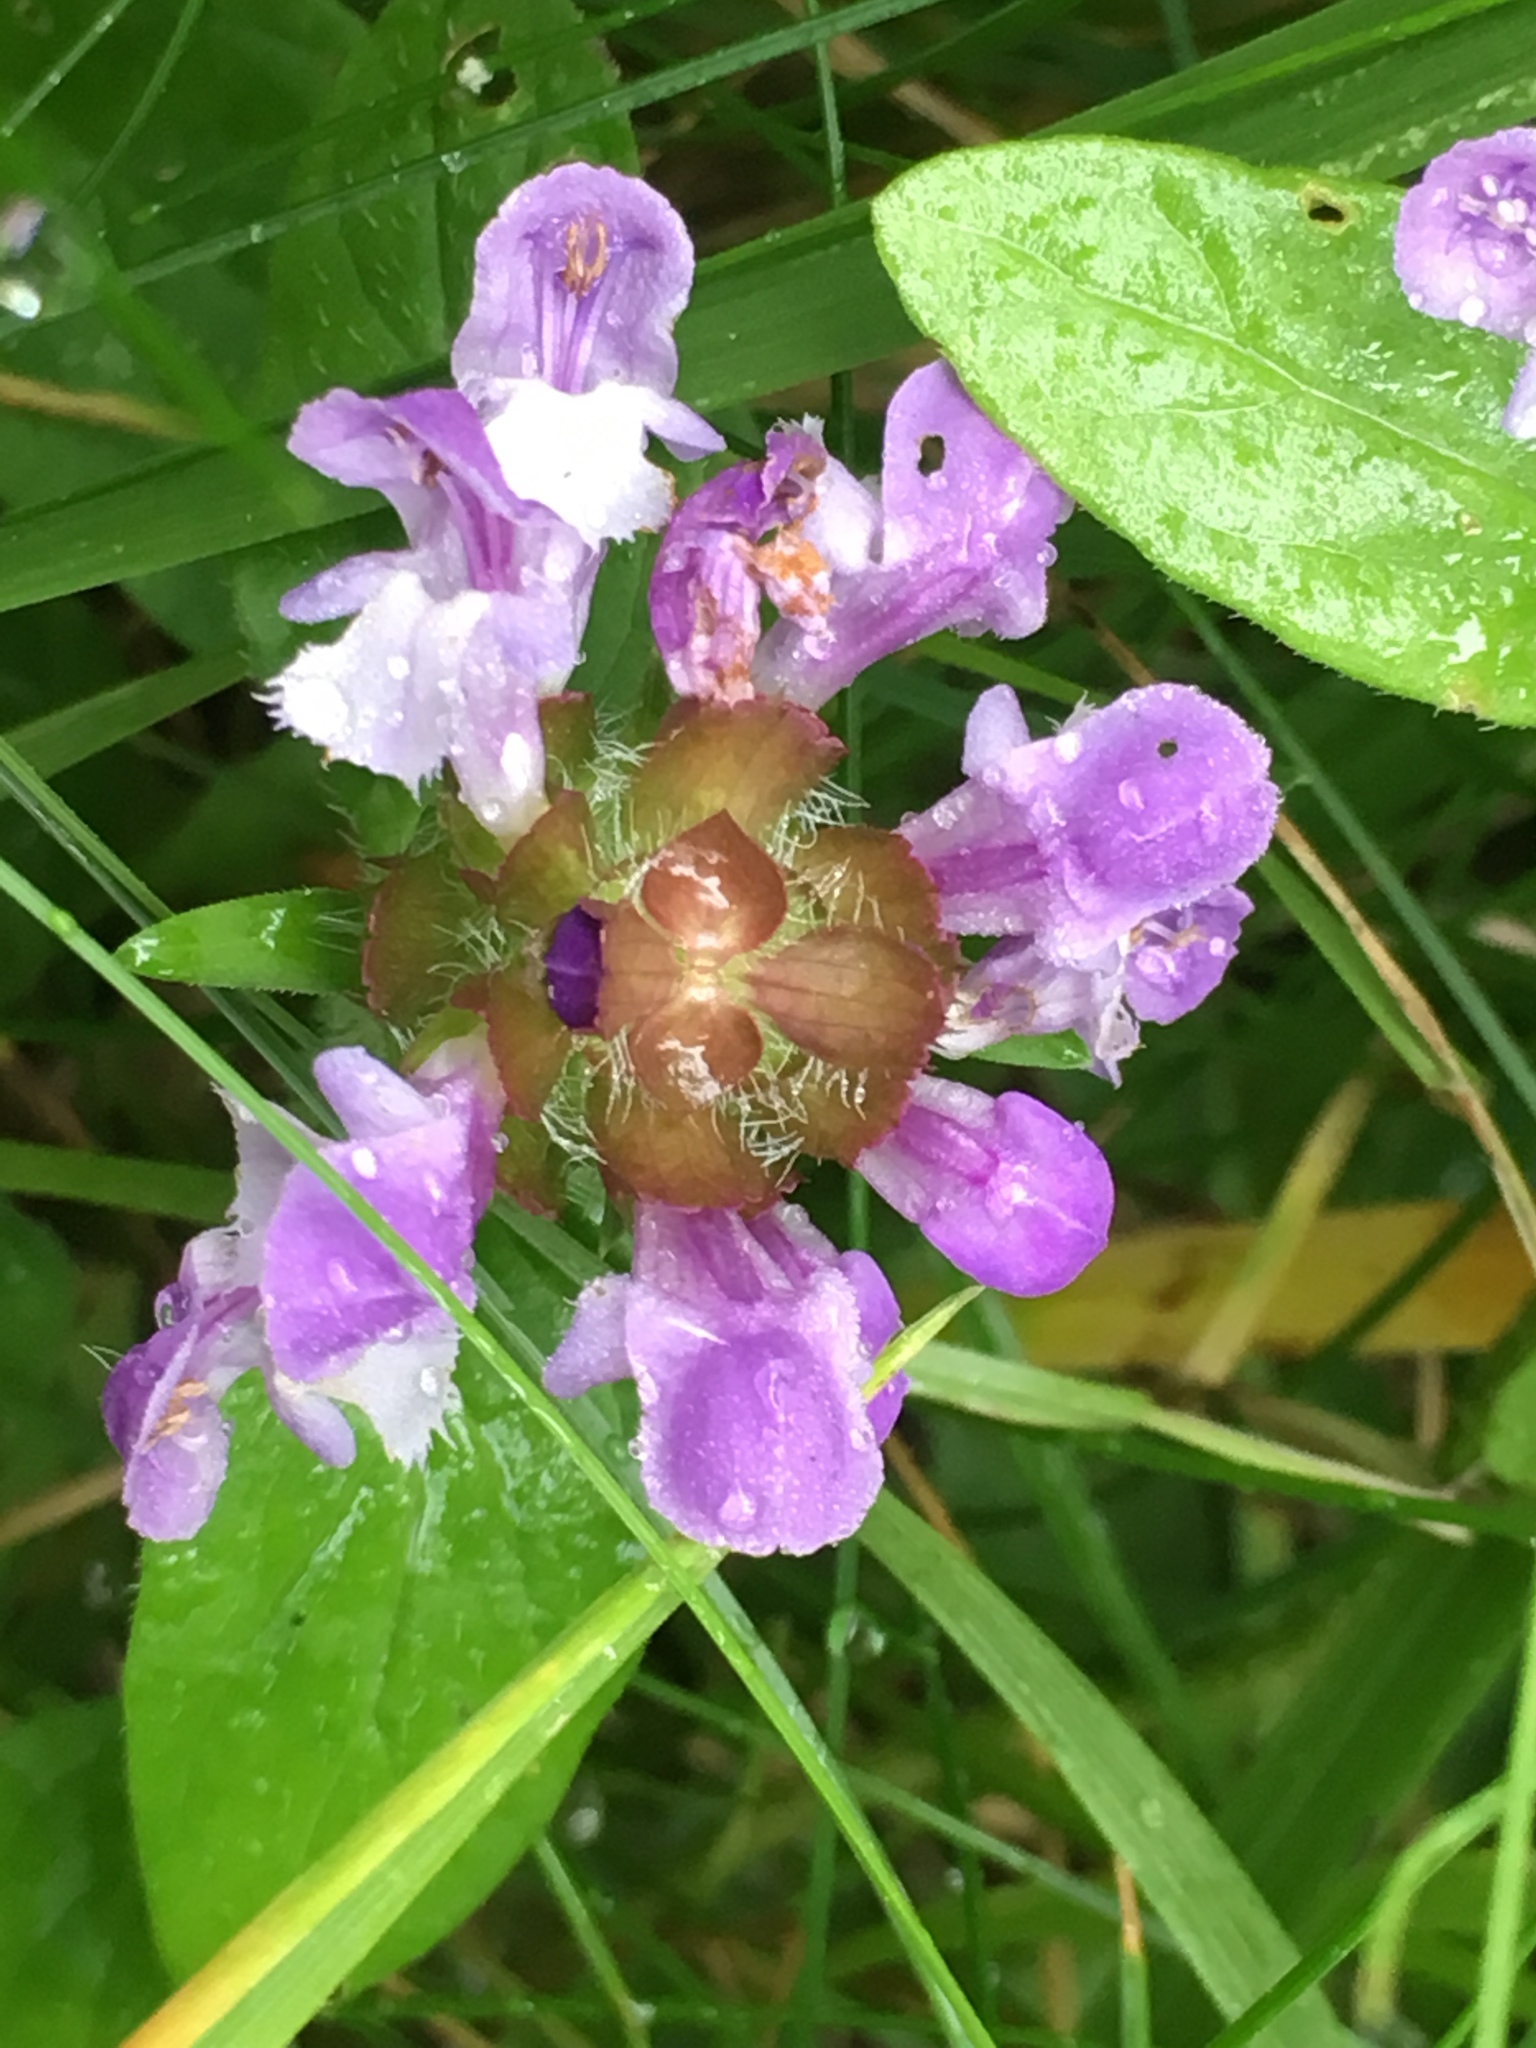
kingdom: Plantae
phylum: Tracheophyta
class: Magnoliopsida
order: Lamiales
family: Lamiaceae
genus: Prunella
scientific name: Prunella vulgaris
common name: Heal-all
